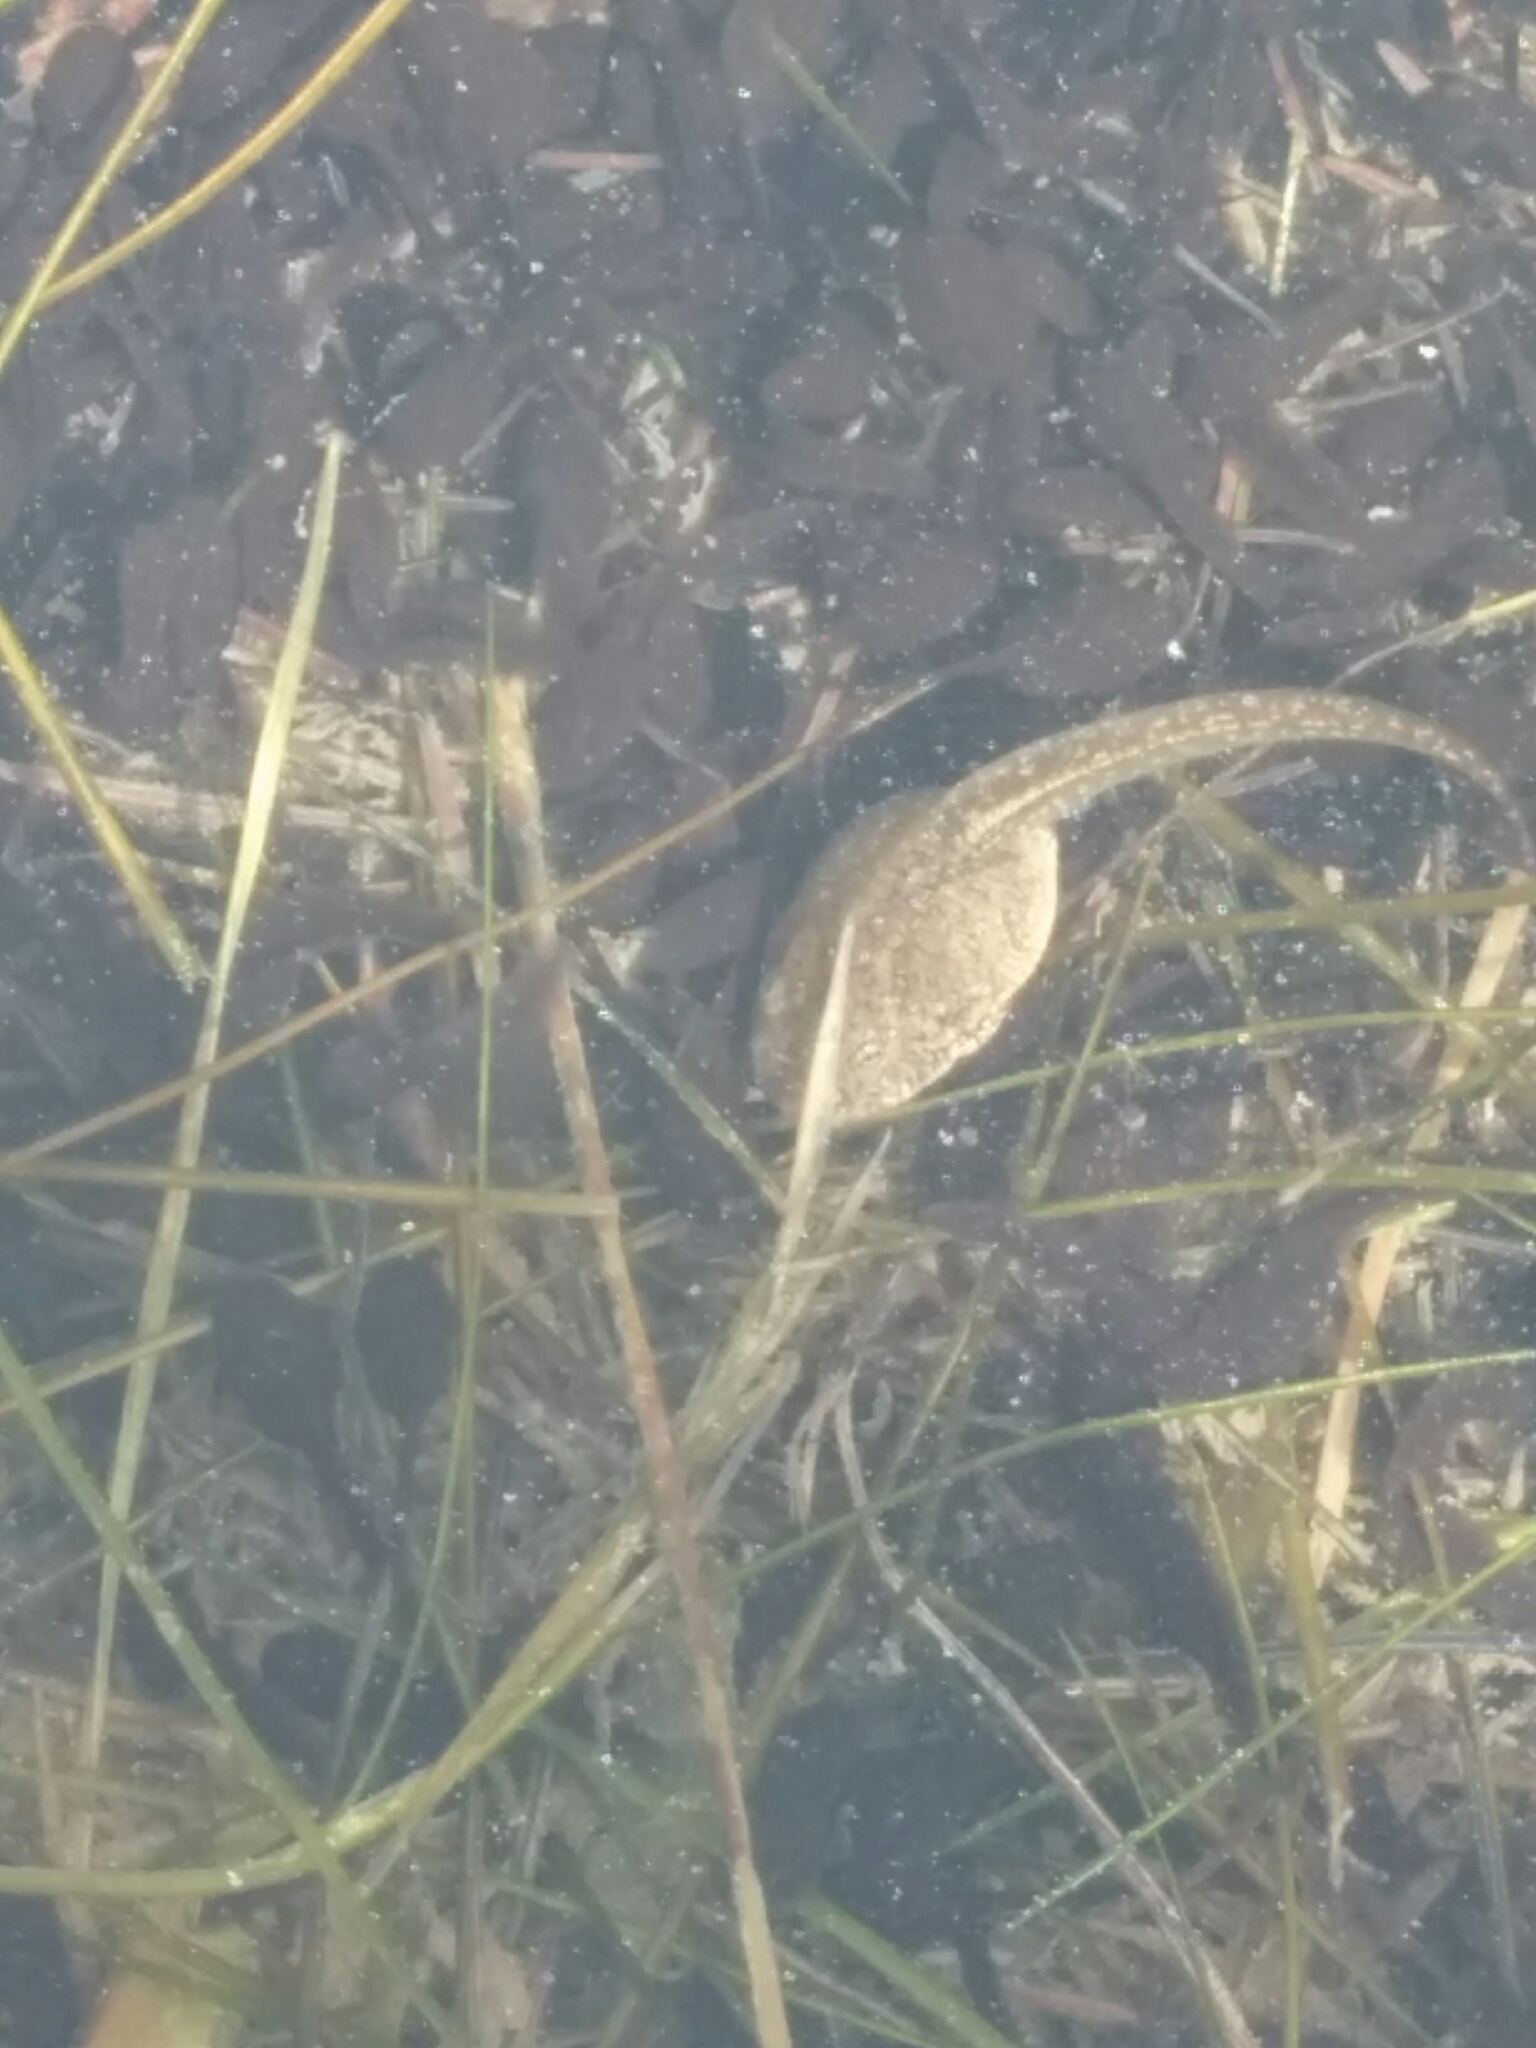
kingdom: Animalia
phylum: Chordata
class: Amphibia
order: Anura
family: Ranidae
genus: Rana
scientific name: Rana temporaria
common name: Common frog
